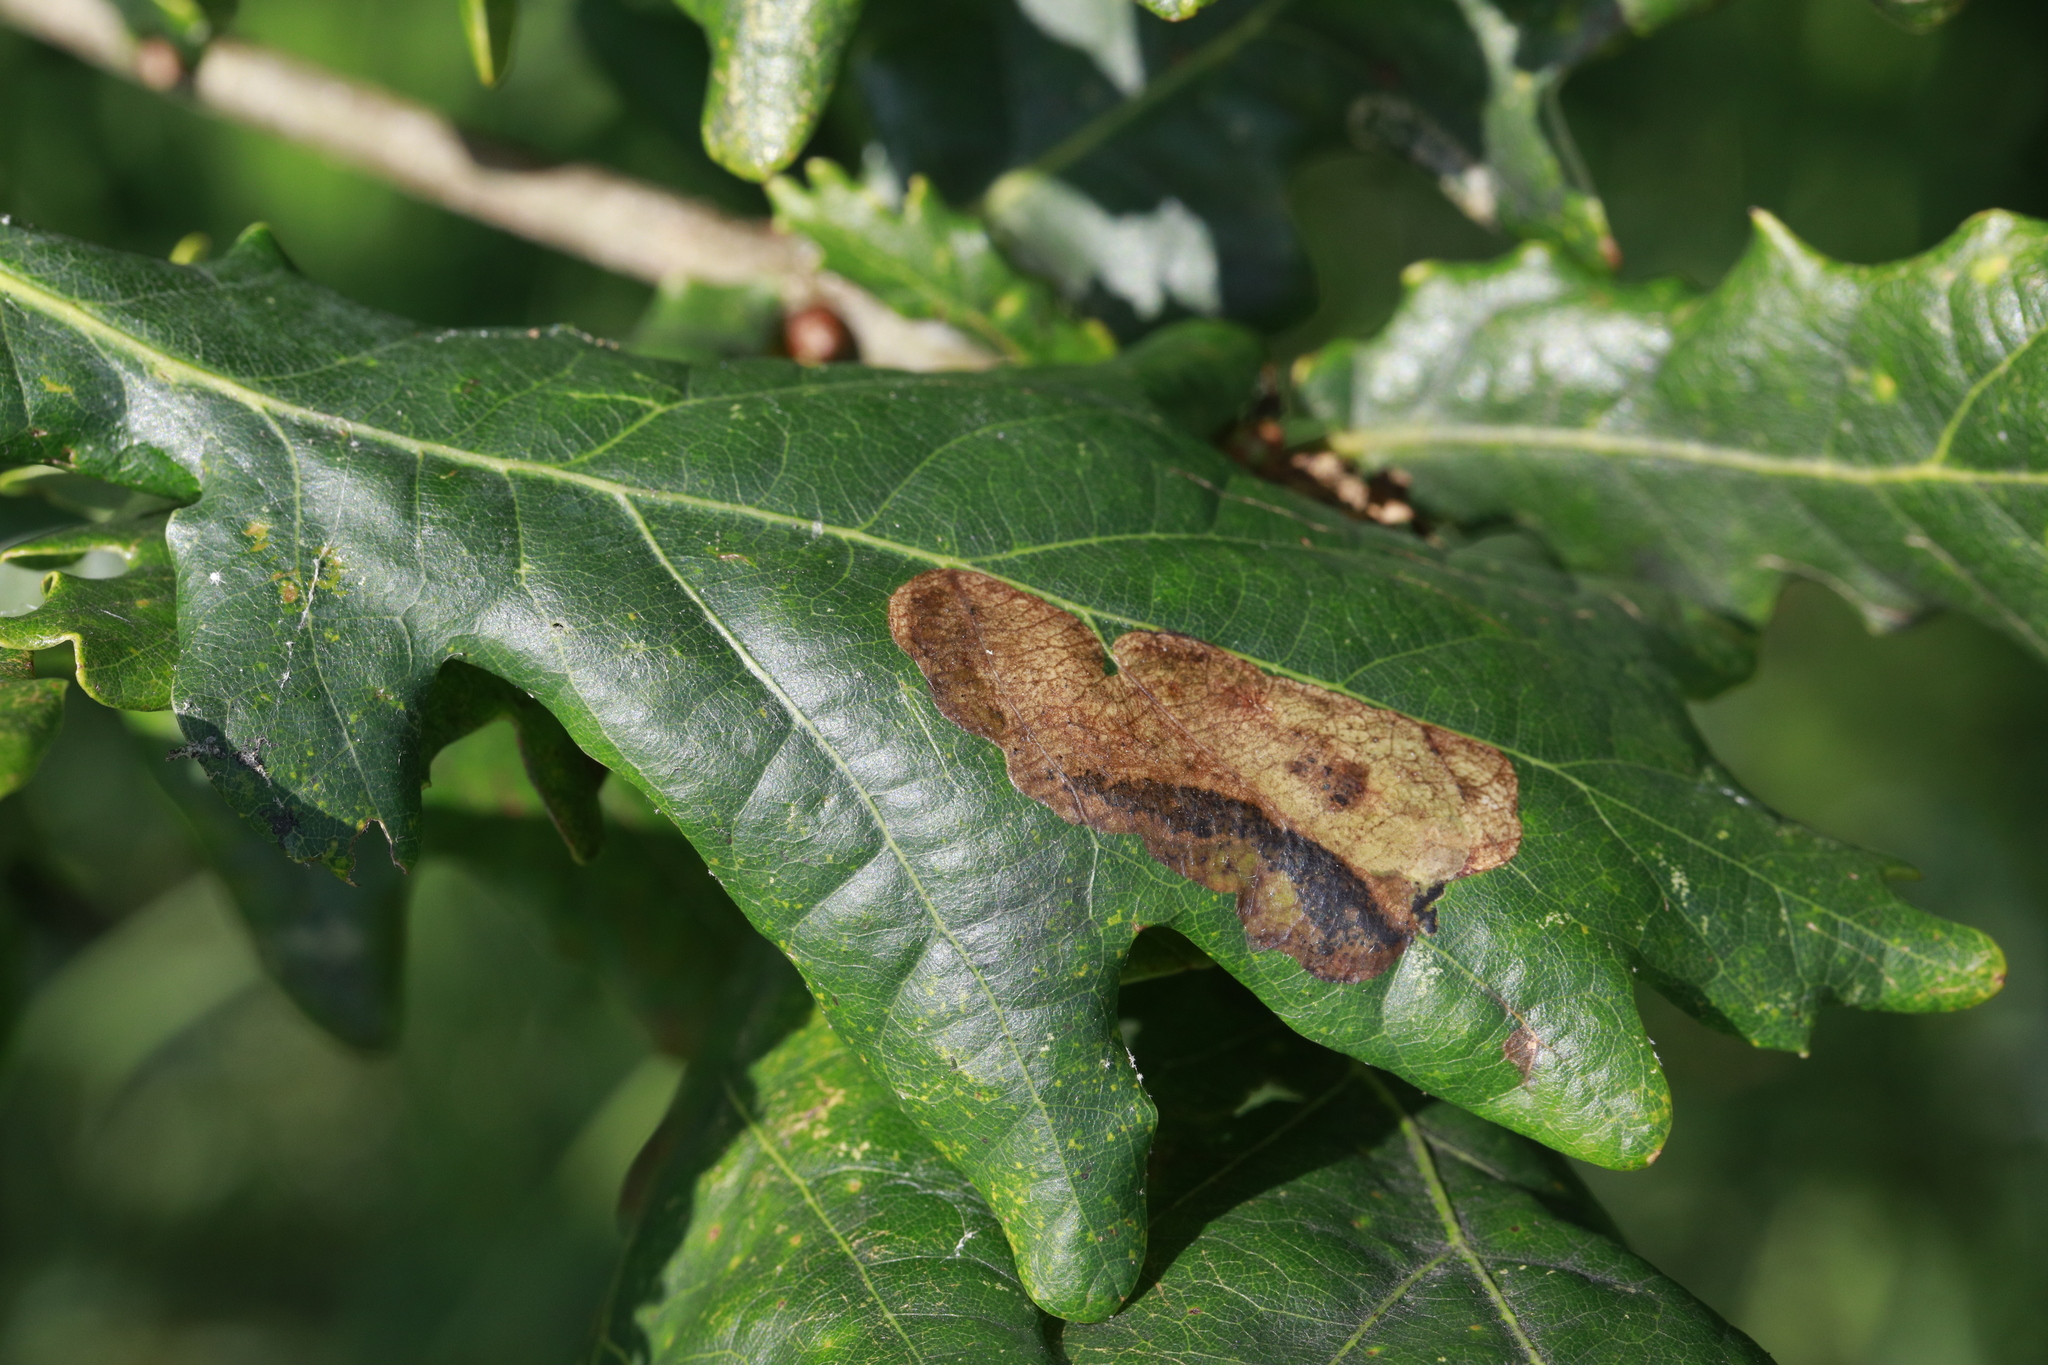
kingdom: Animalia
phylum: Arthropoda
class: Insecta
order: Lepidoptera
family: Gracillariidae
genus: Acrocercops
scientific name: Acrocercops brongniardella
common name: Brown oak slender
